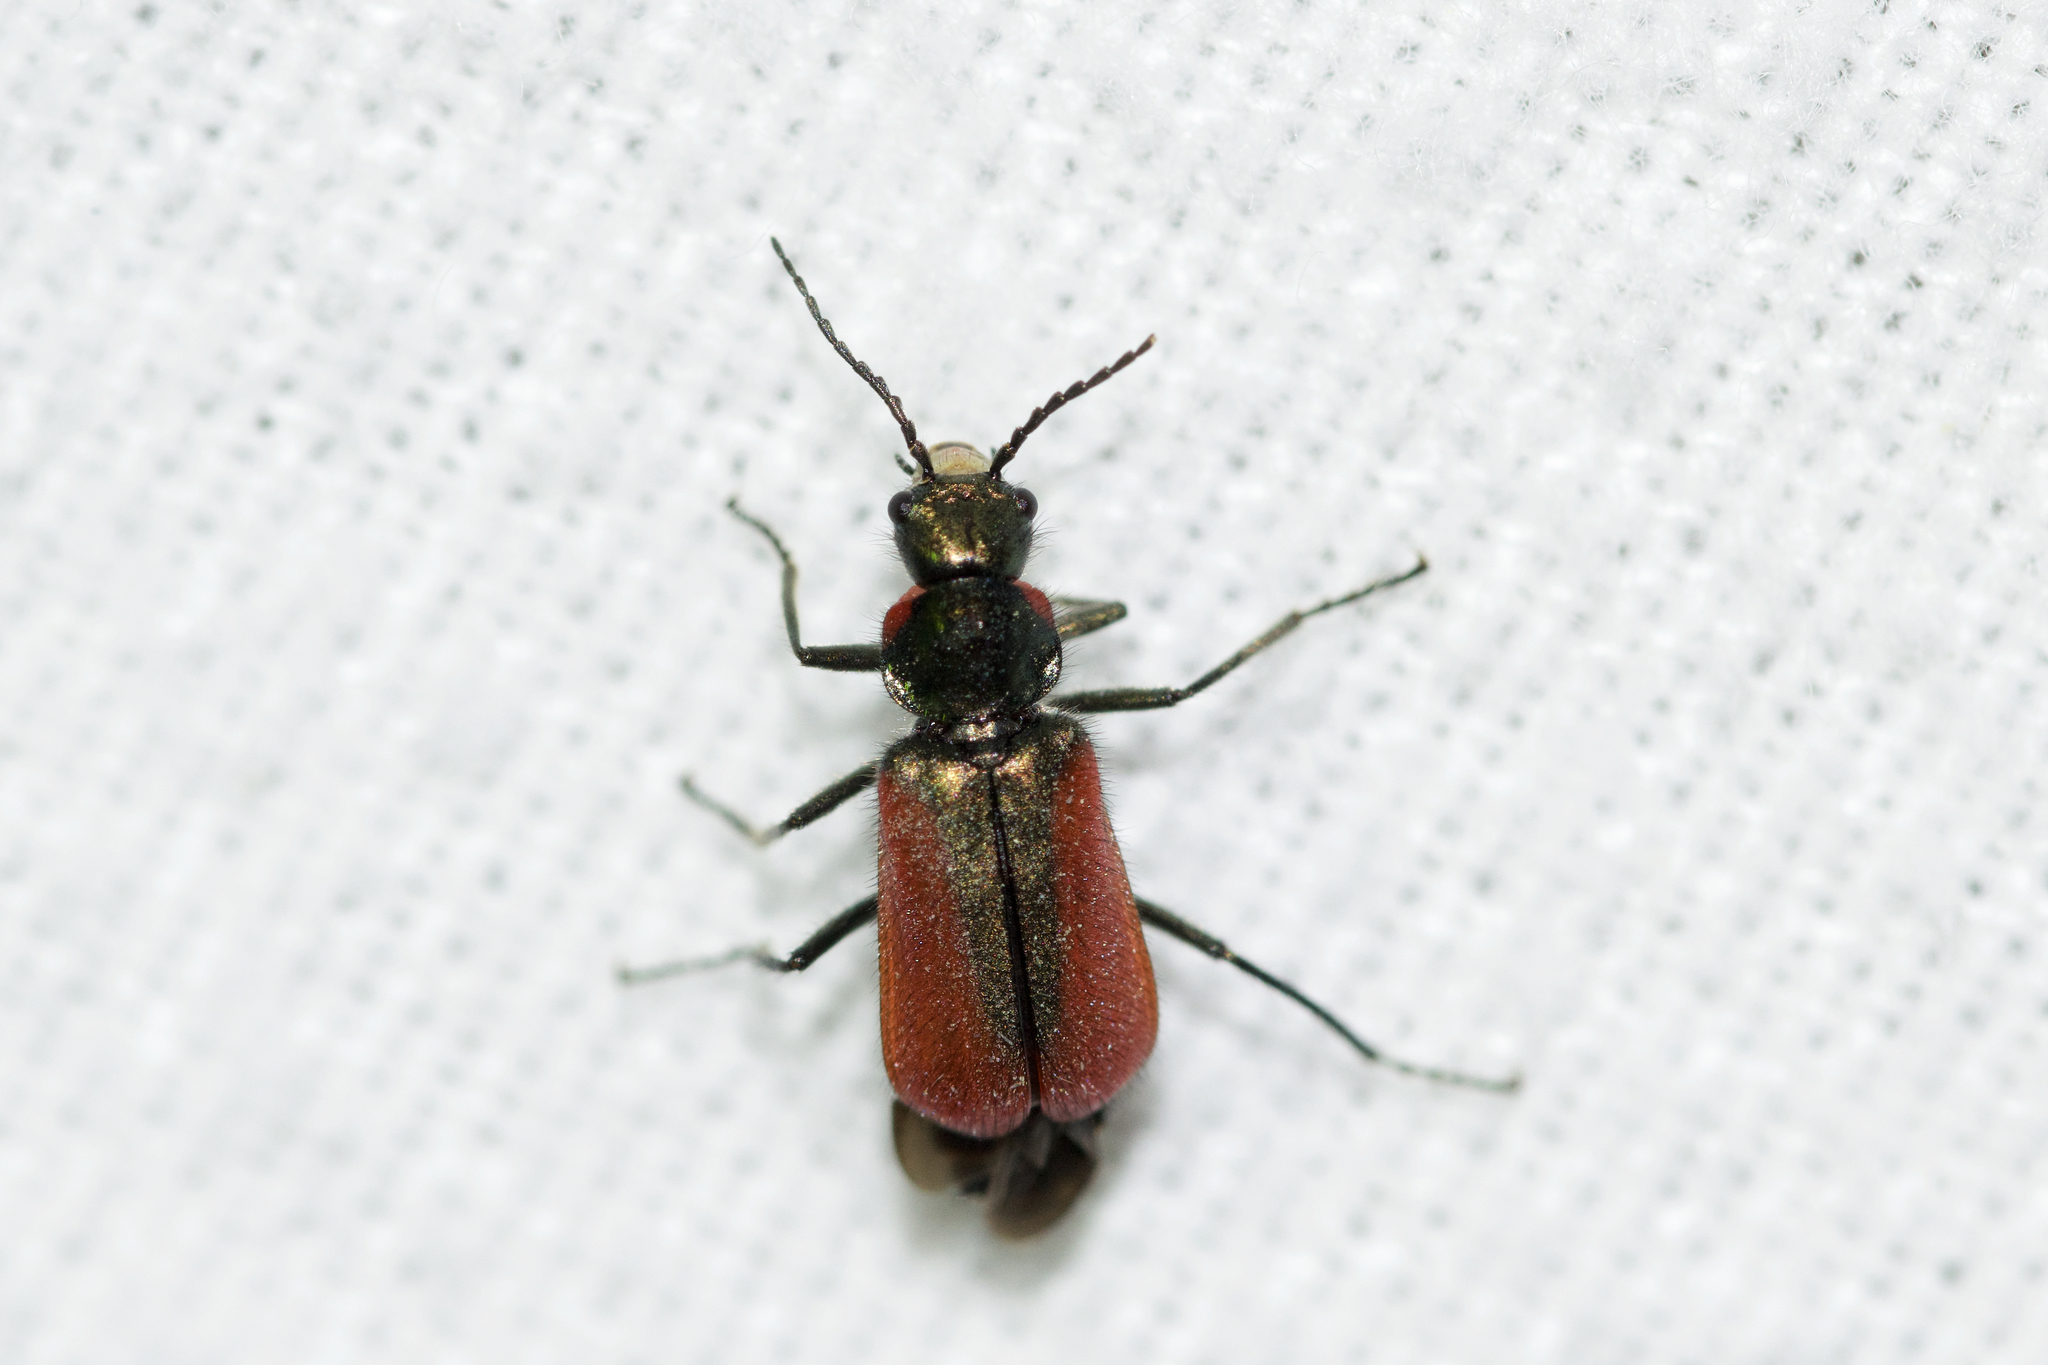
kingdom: Animalia
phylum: Arthropoda
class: Insecta
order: Coleoptera
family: Melyridae
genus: Malachius
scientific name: Malachius aeneus
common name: Scarlet malachite beetle
